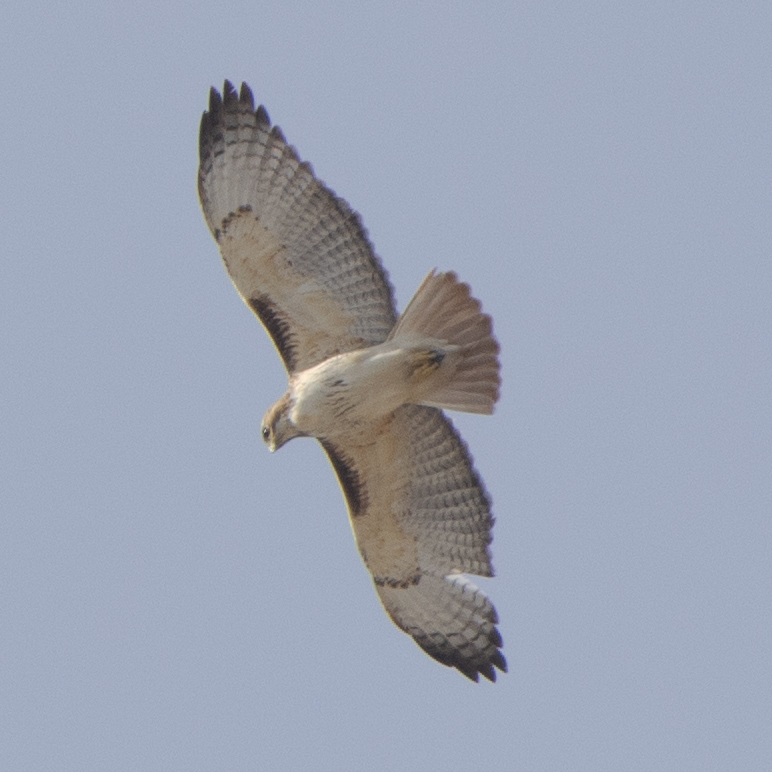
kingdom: Animalia
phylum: Chordata
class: Aves
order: Accipitriformes
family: Accipitridae
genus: Buteo
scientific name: Buteo jamaicensis
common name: Red-tailed hawk
